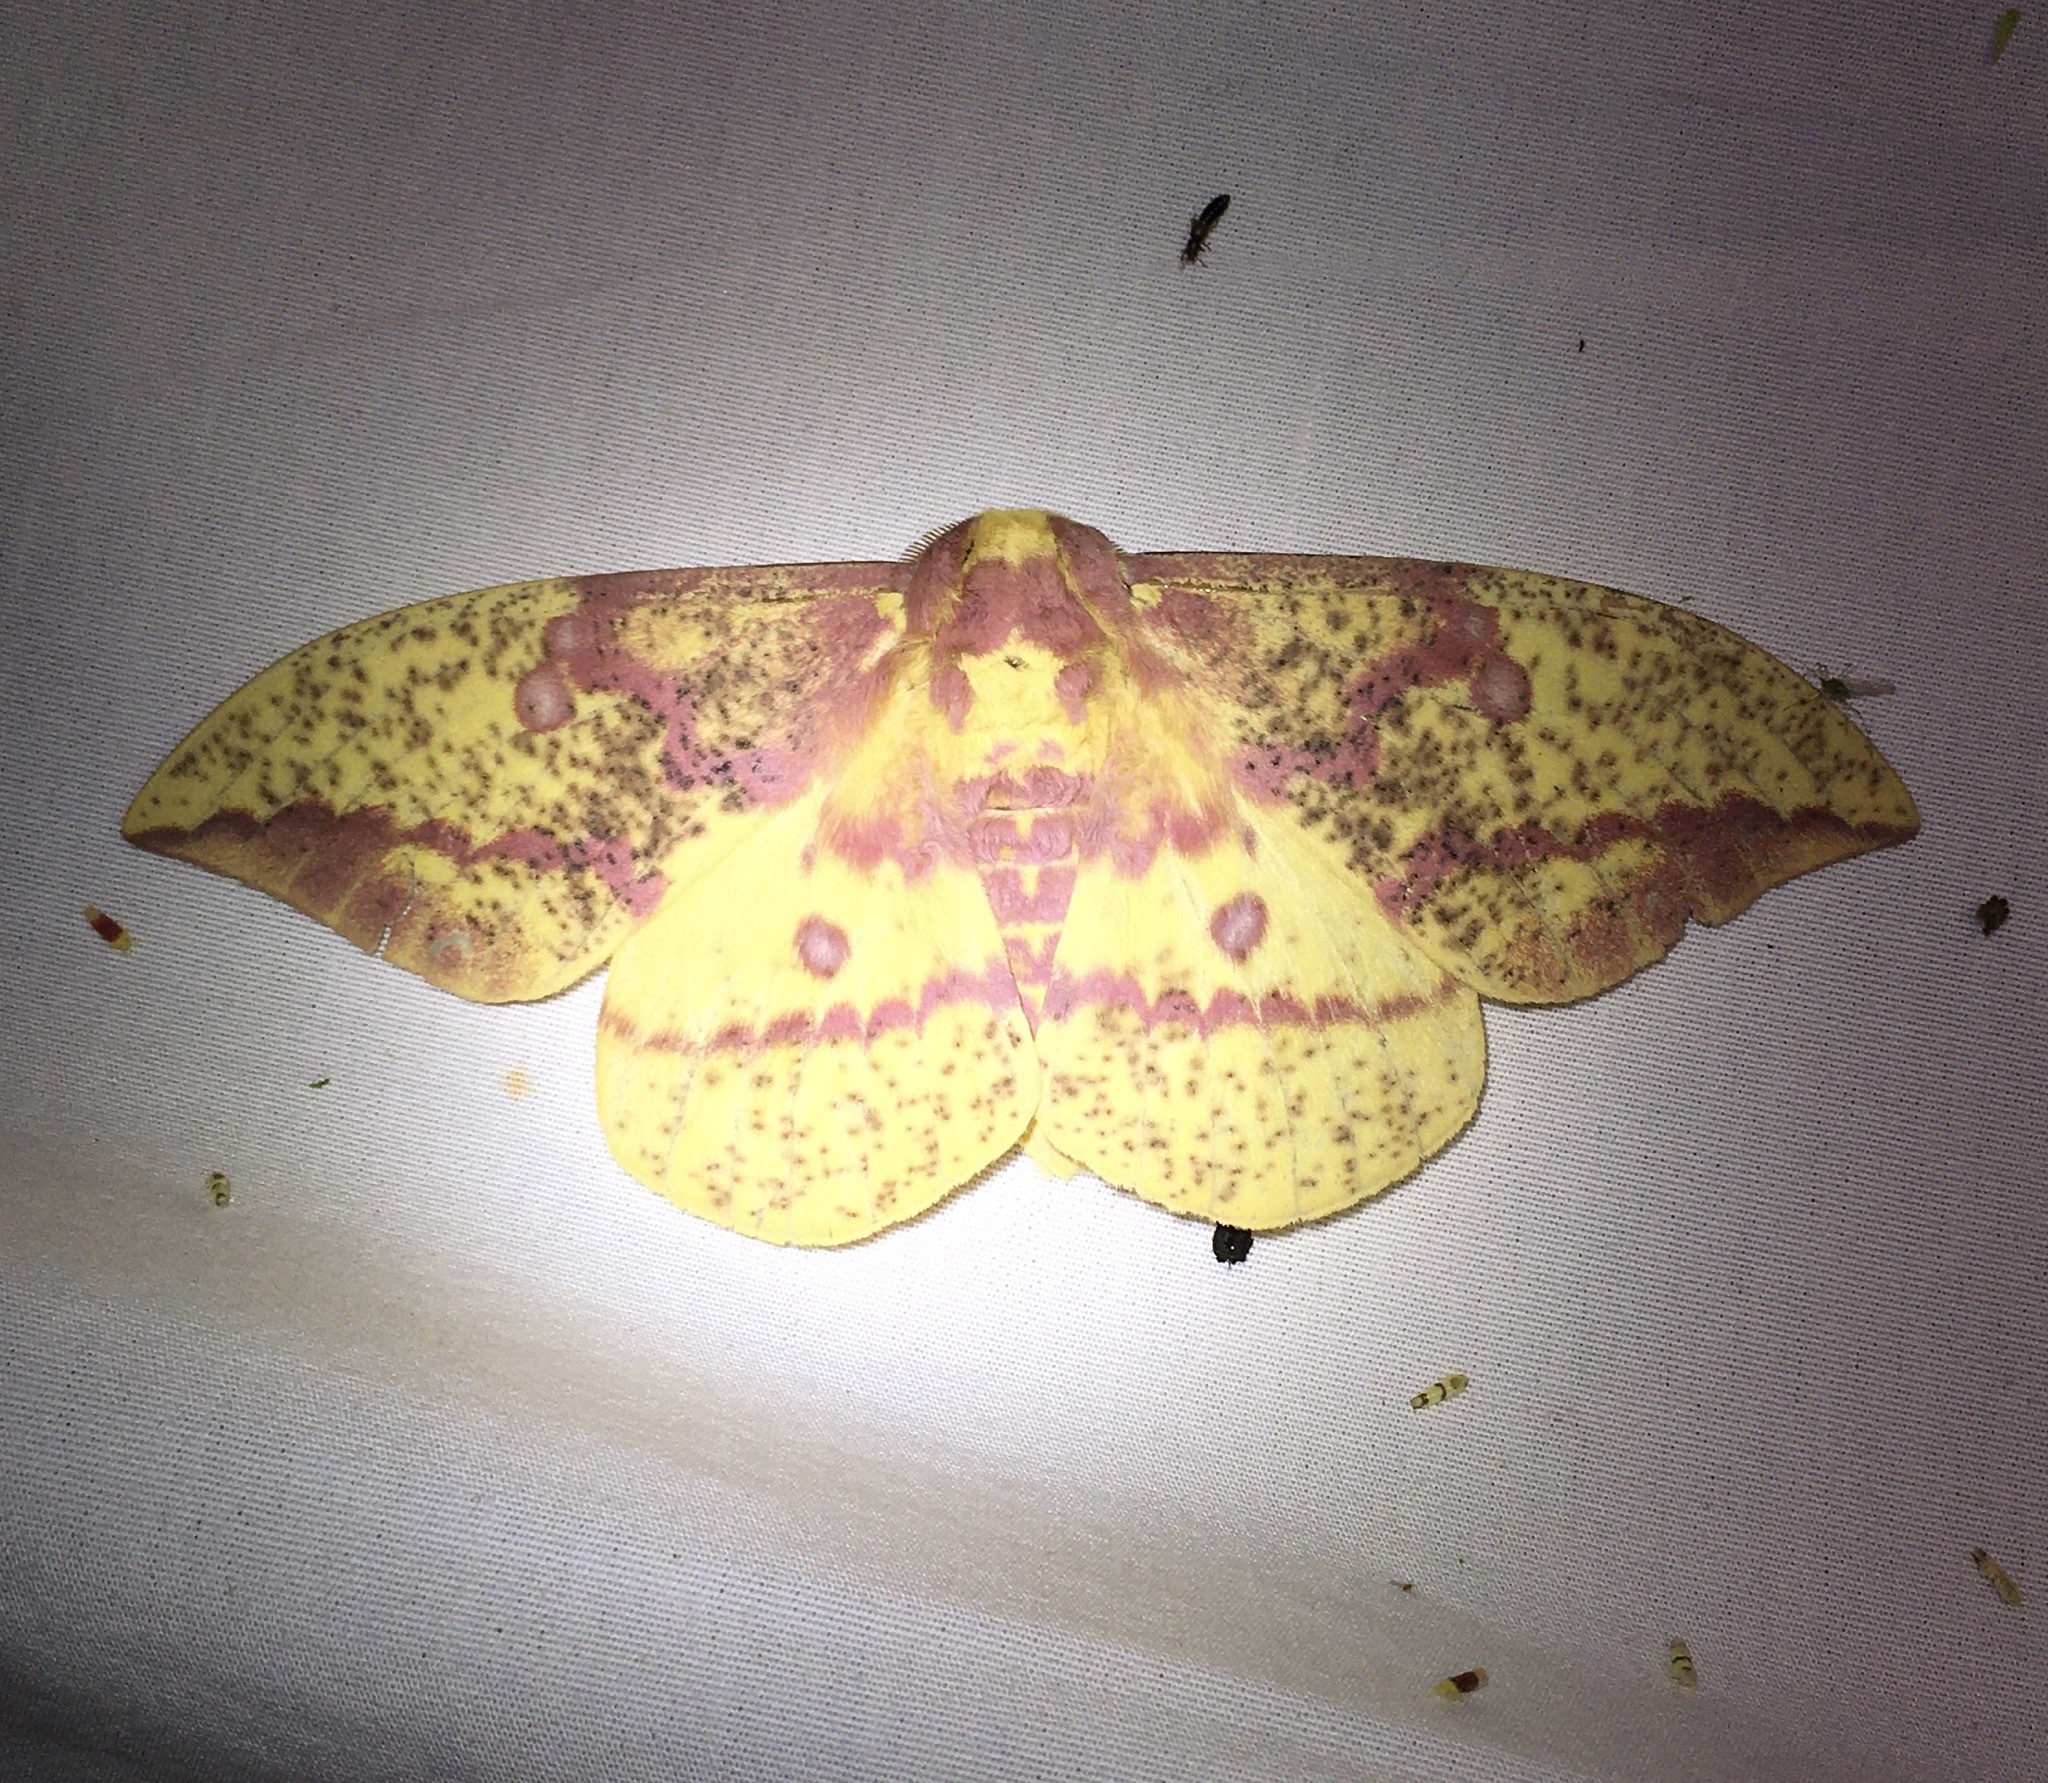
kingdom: Animalia
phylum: Arthropoda
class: Insecta
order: Lepidoptera
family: Saturniidae
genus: Eacles
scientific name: Eacles
